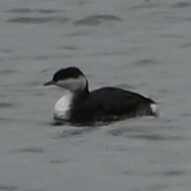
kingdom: Animalia
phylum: Chordata
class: Aves
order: Podicipediformes
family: Podicipedidae
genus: Podiceps
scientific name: Podiceps auritus
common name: Horned grebe
